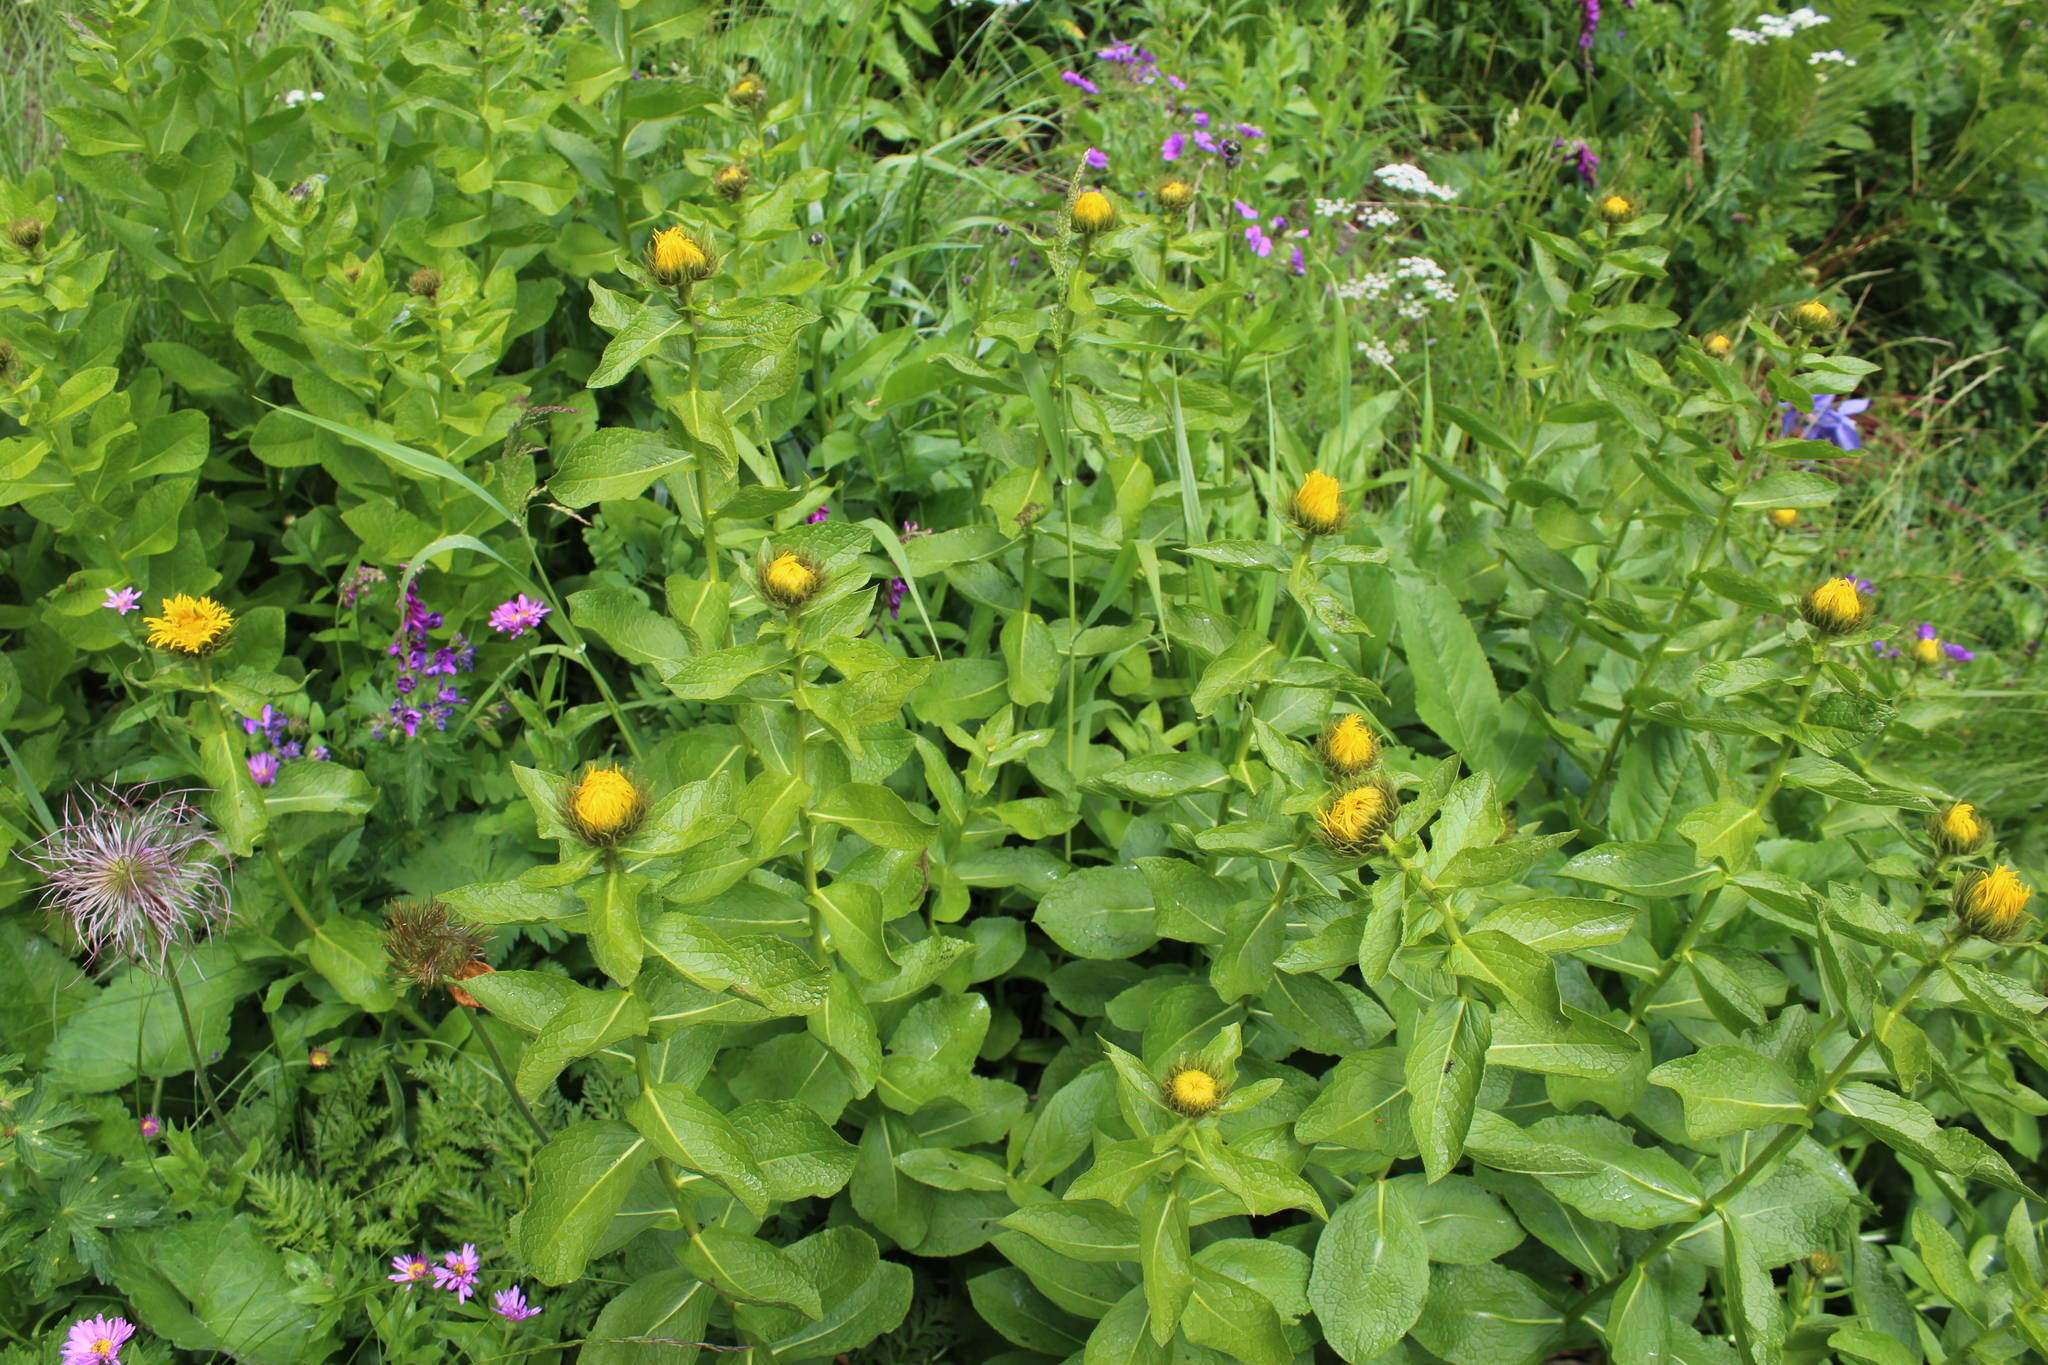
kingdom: Plantae
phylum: Tracheophyta
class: Magnoliopsida
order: Asterales
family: Asteraceae
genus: Pentanema
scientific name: Pentanema orientale
